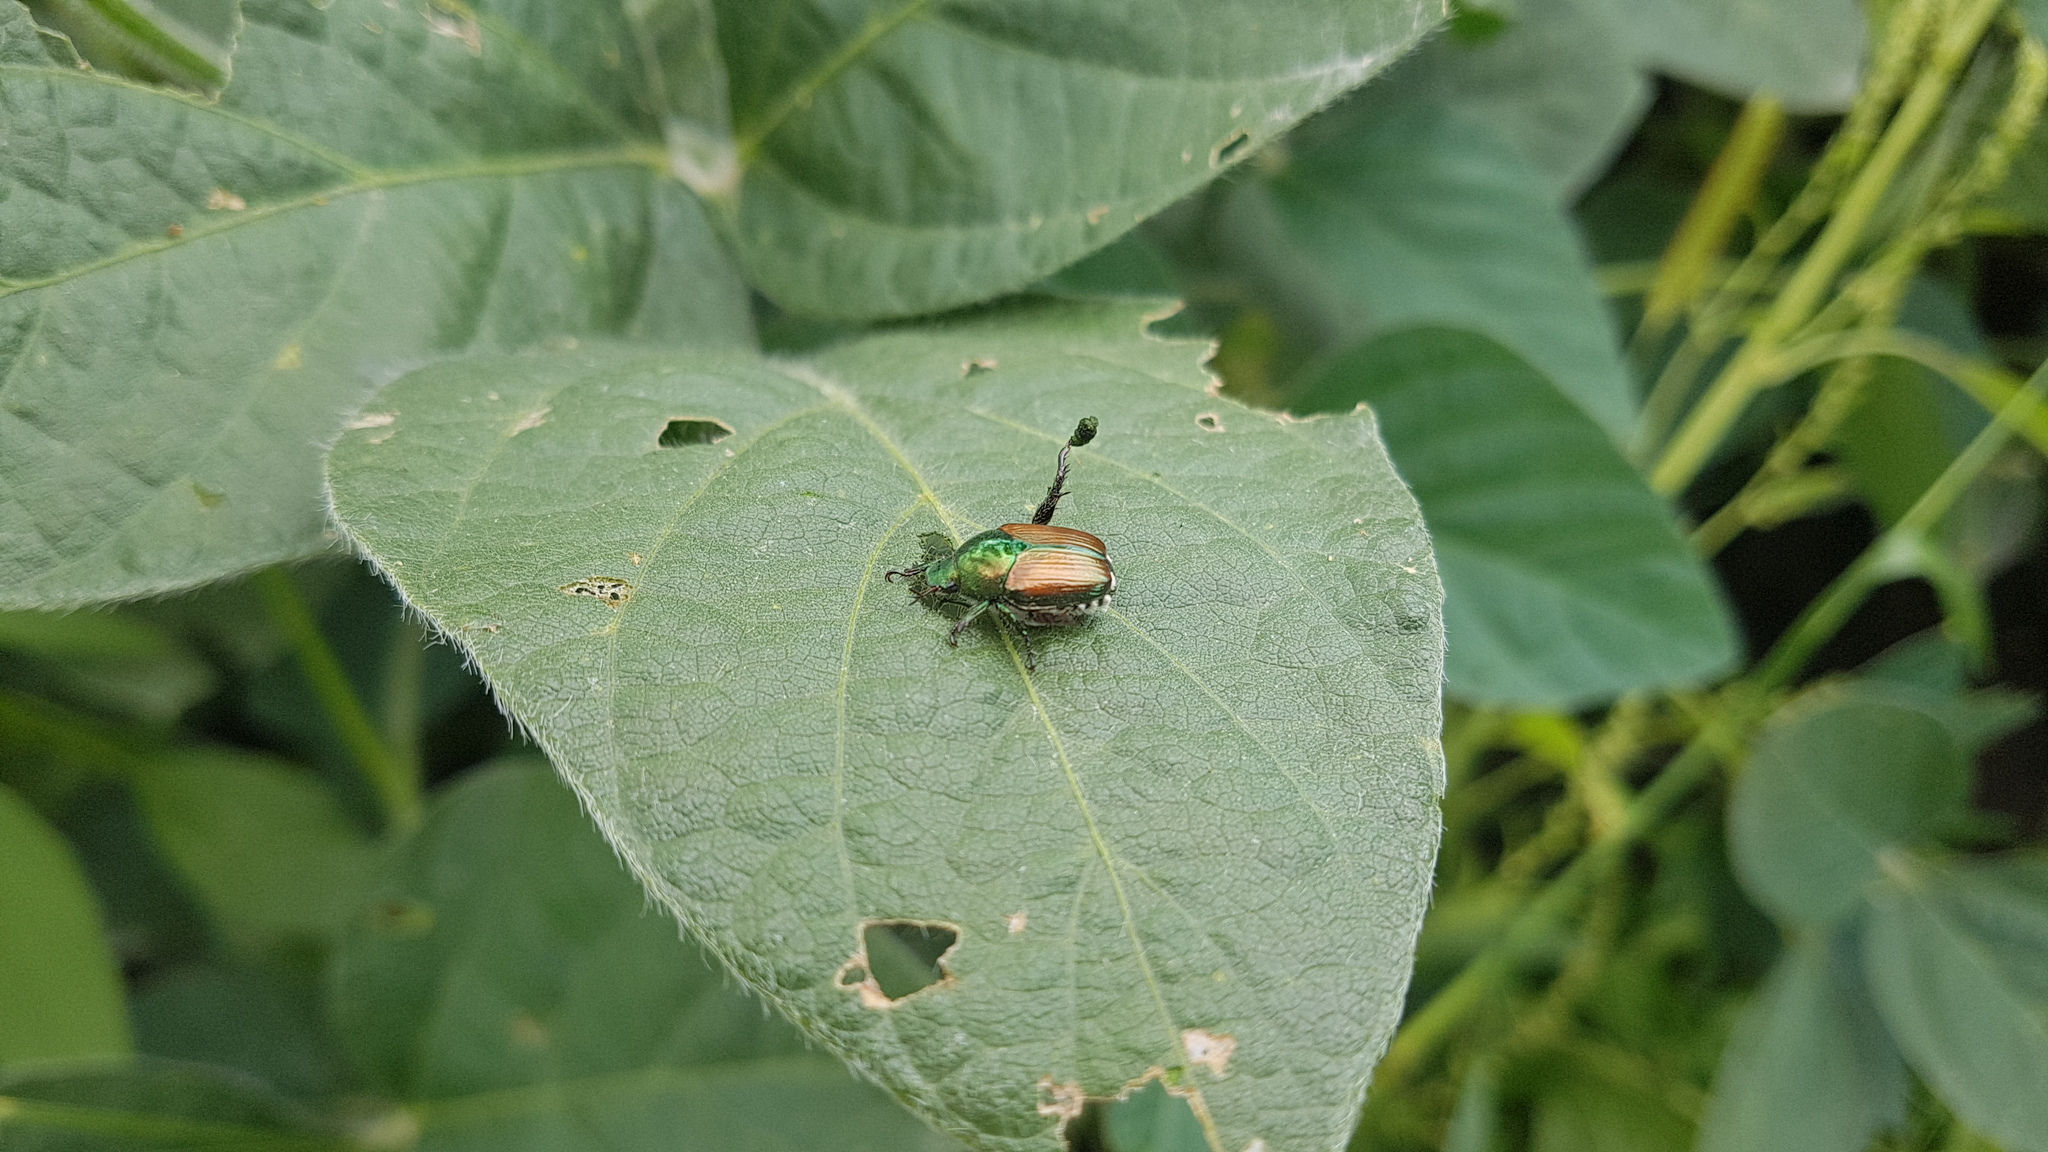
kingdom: Animalia
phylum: Arthropoda
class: Insecta
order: Coleoptera
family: Scarabaeidae
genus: Popillia
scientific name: Popillia japonica
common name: Japanese beetle
